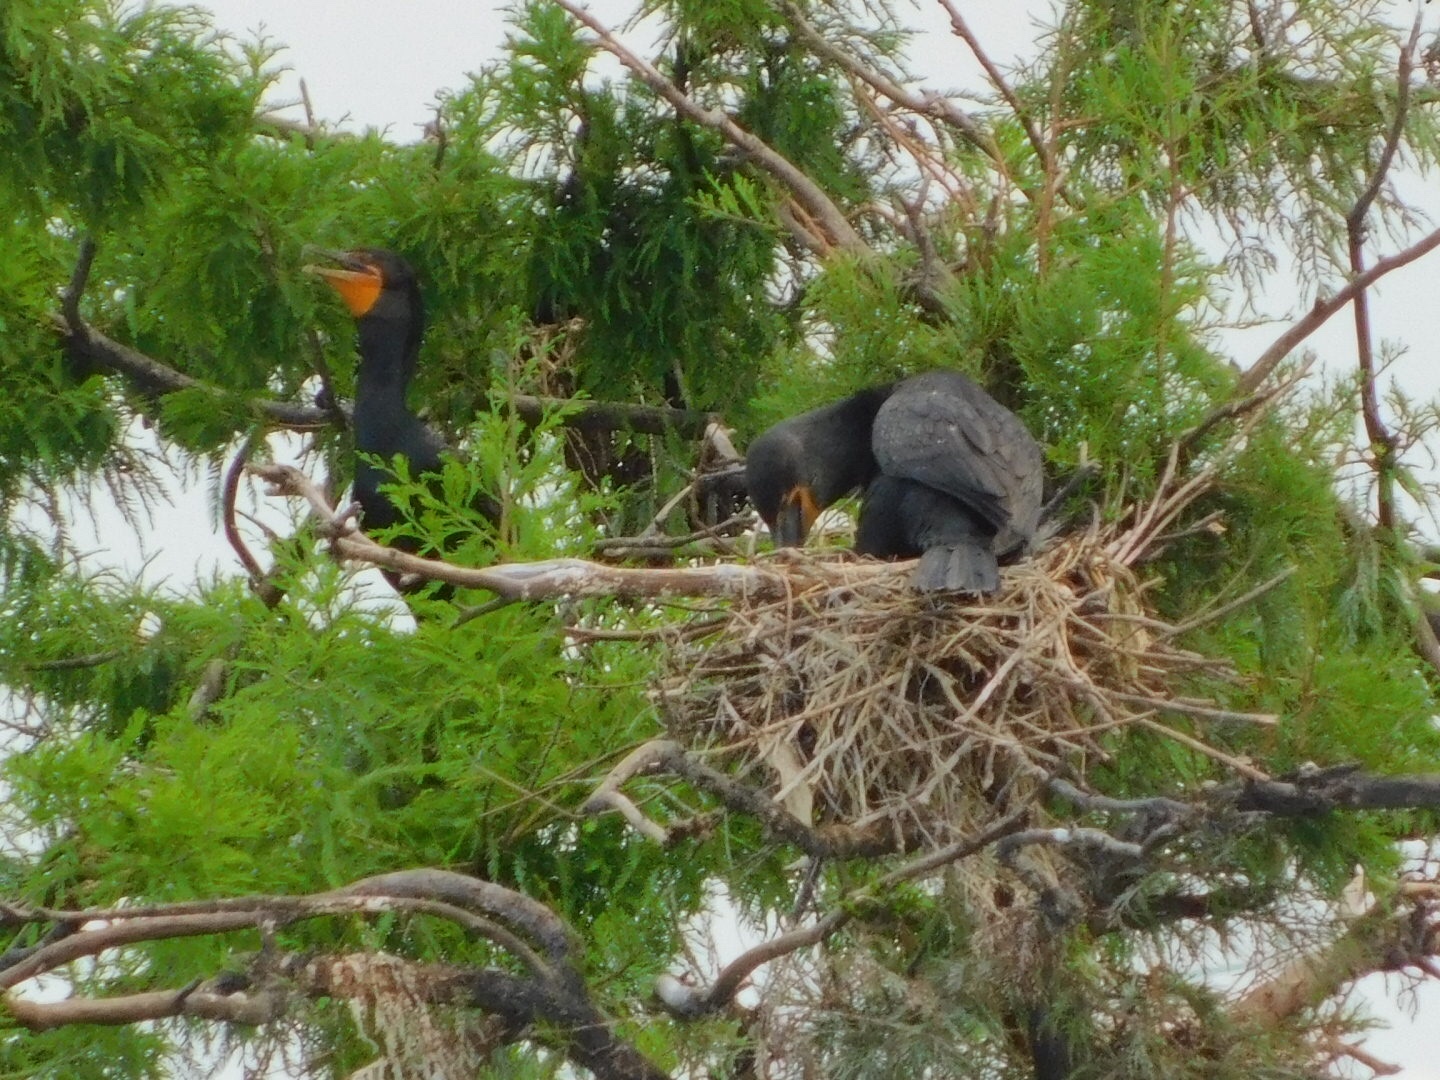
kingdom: Animalia
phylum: Chordata
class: Aves
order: Suliformes
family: Phalacrocoracidae
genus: Phalacrocorax
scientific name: Phalacrocorax auritus
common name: Double-crested cormorant
